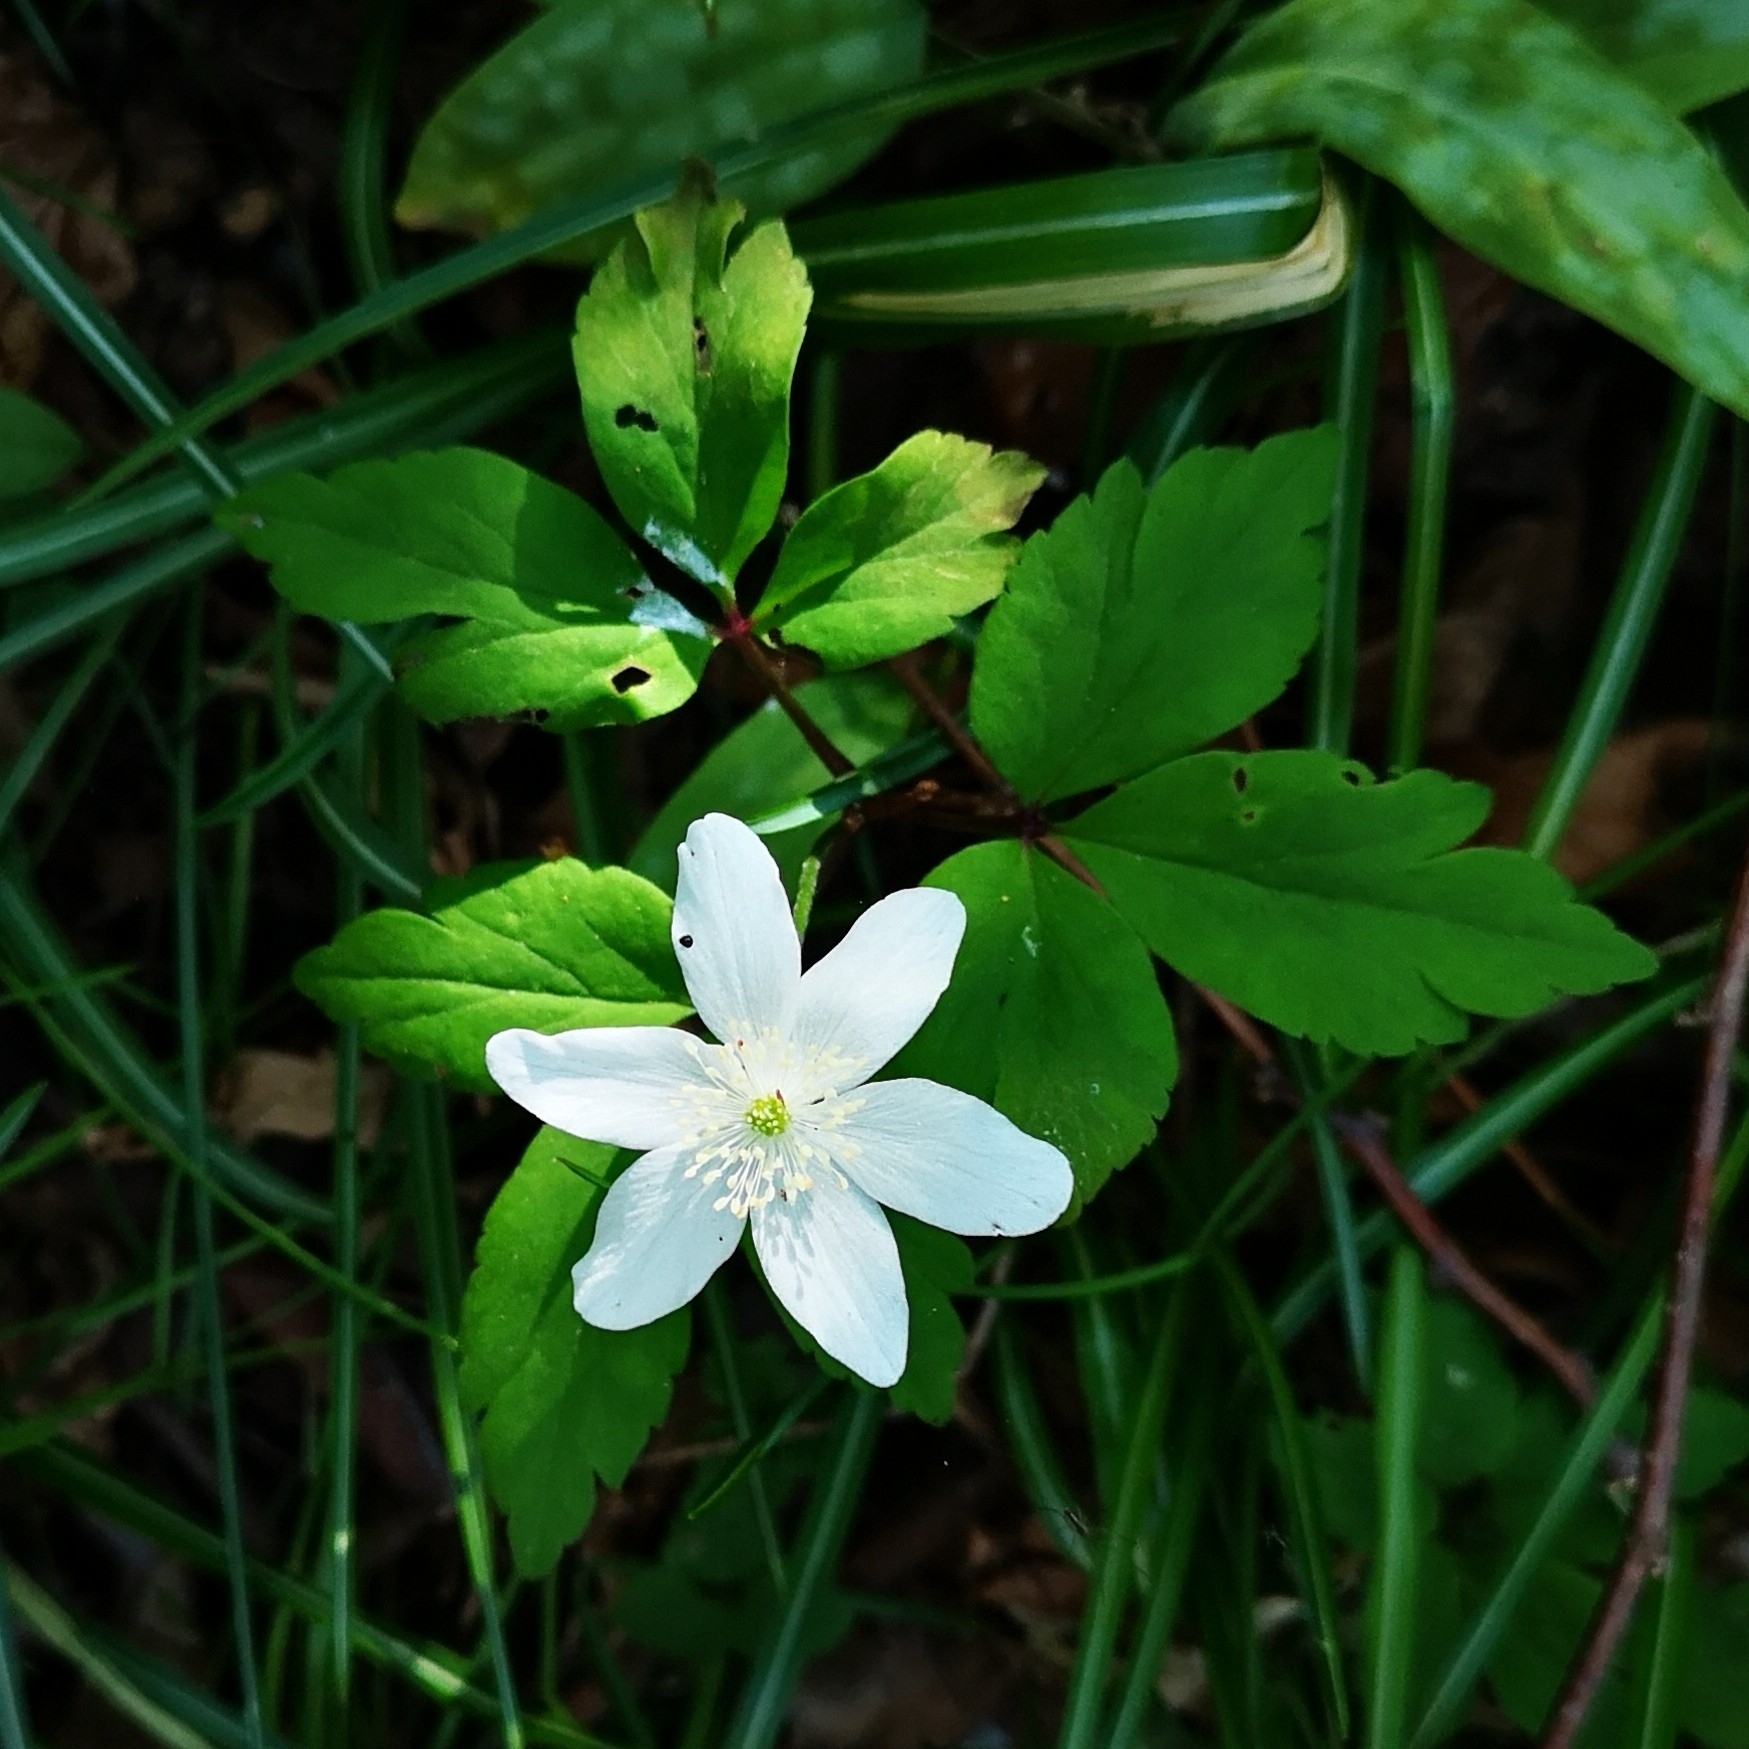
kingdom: Plantae
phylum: Tracheophyta
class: Magnoliopsida
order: Ranunculales
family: Ranunculaceae
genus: Anemone
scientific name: Anemone pittonii
